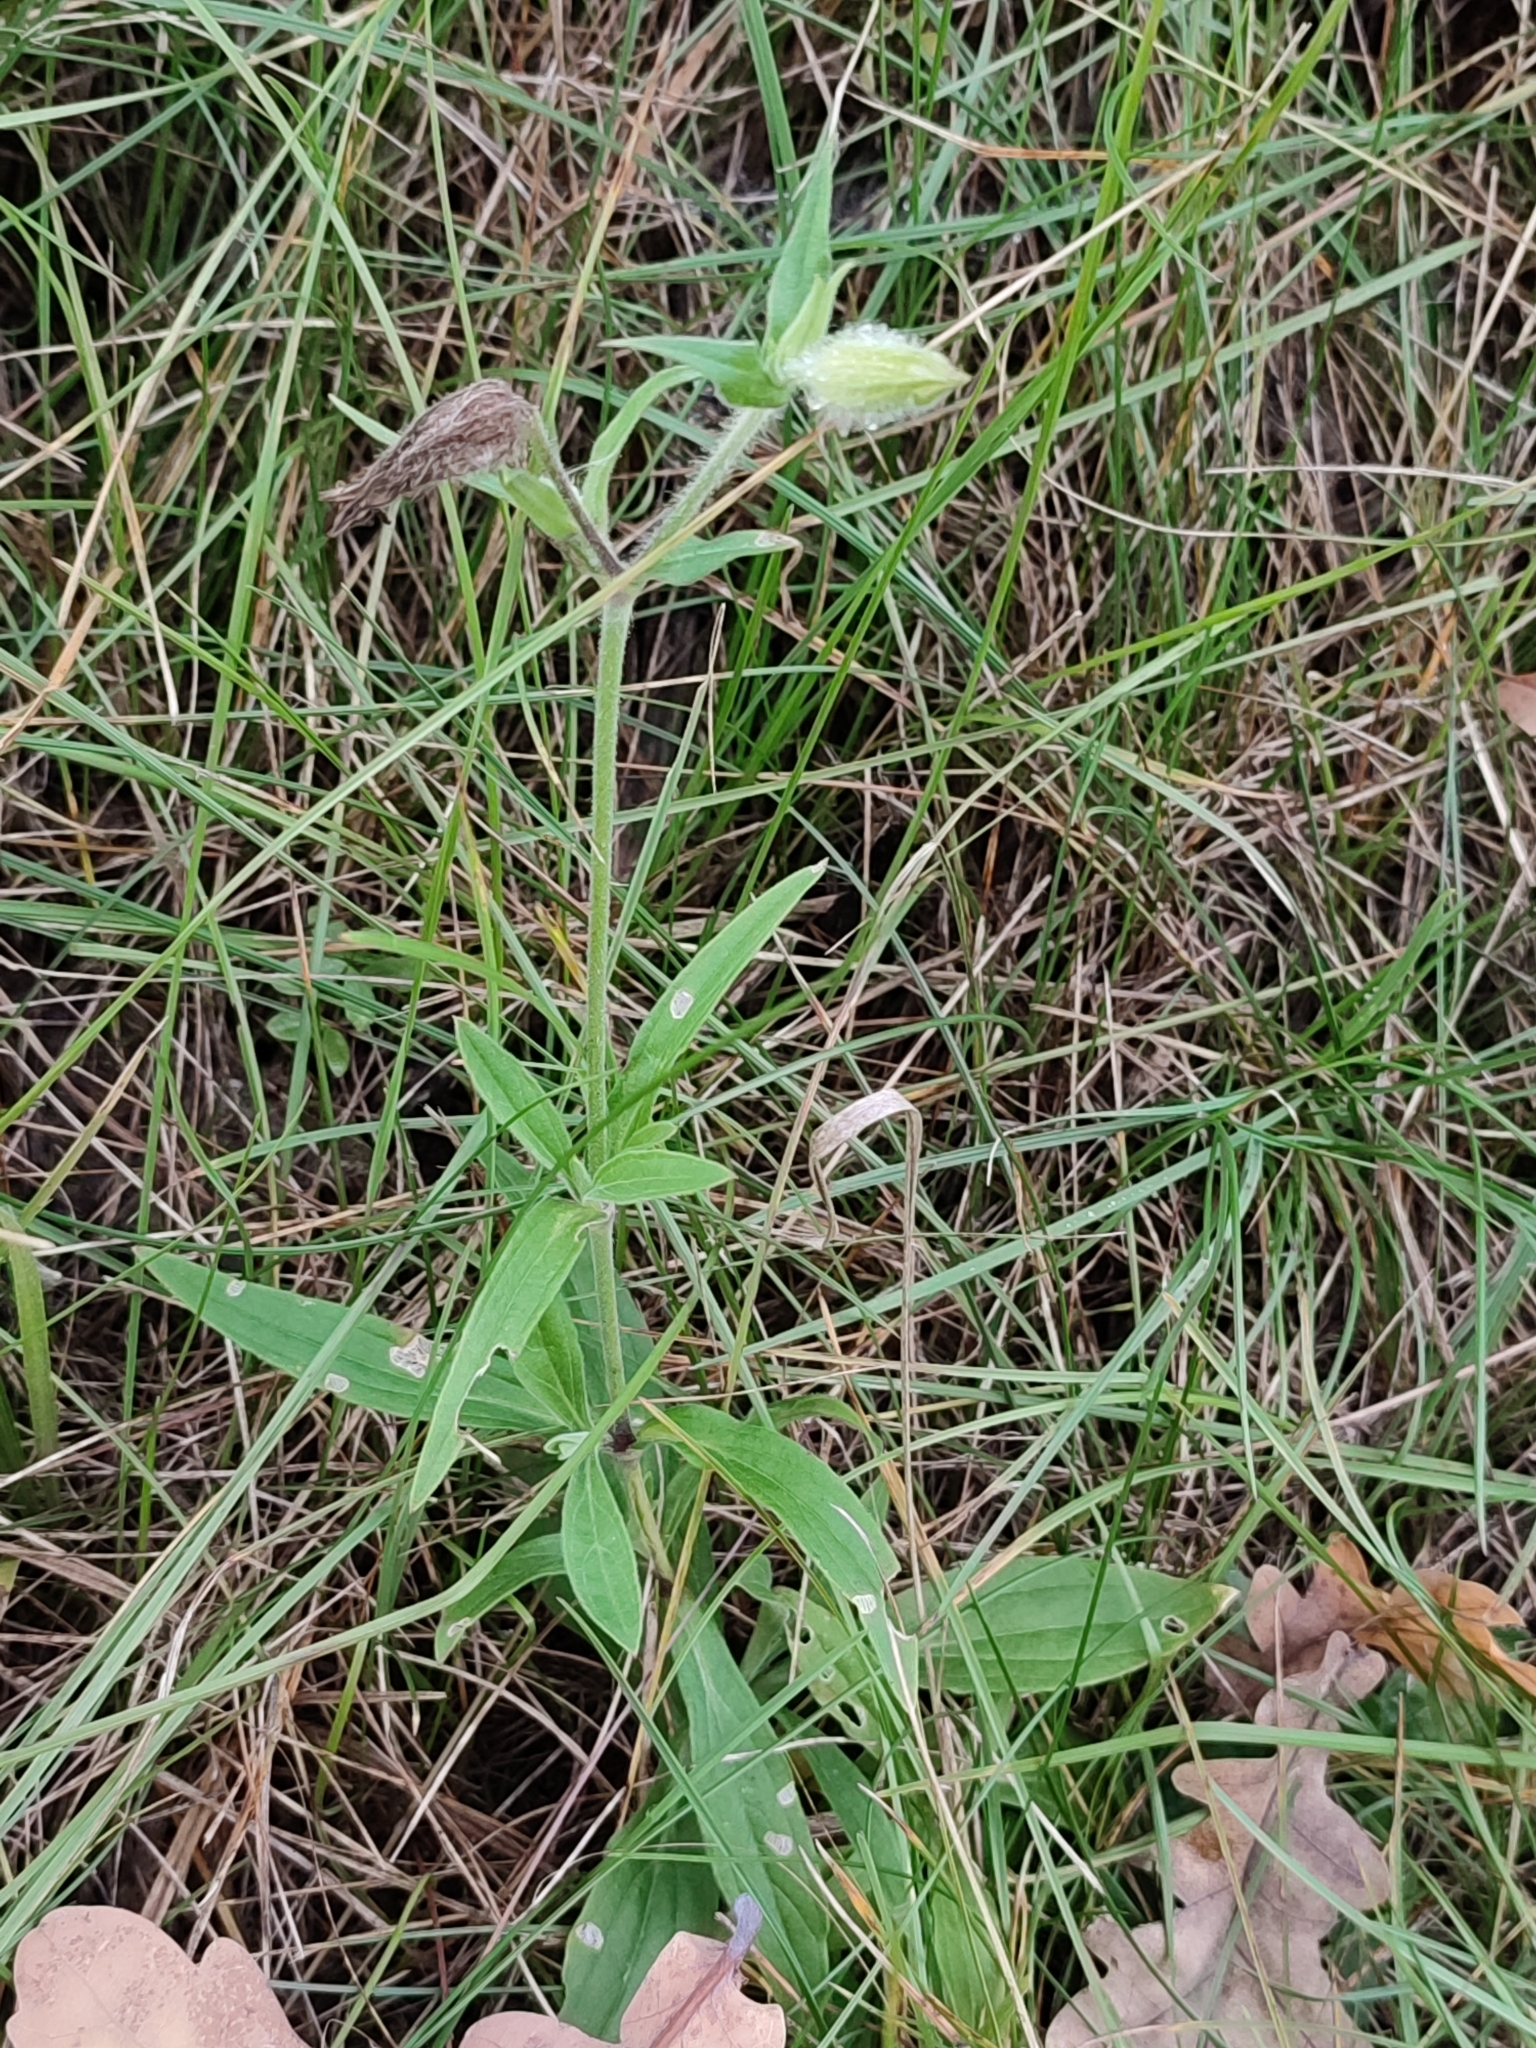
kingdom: Plantae
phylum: Tracheophyta
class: Magnoliopsida
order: Caryophyllales
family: Caryophyllaceae
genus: Silene
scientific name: Silene latifolia
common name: White campion
